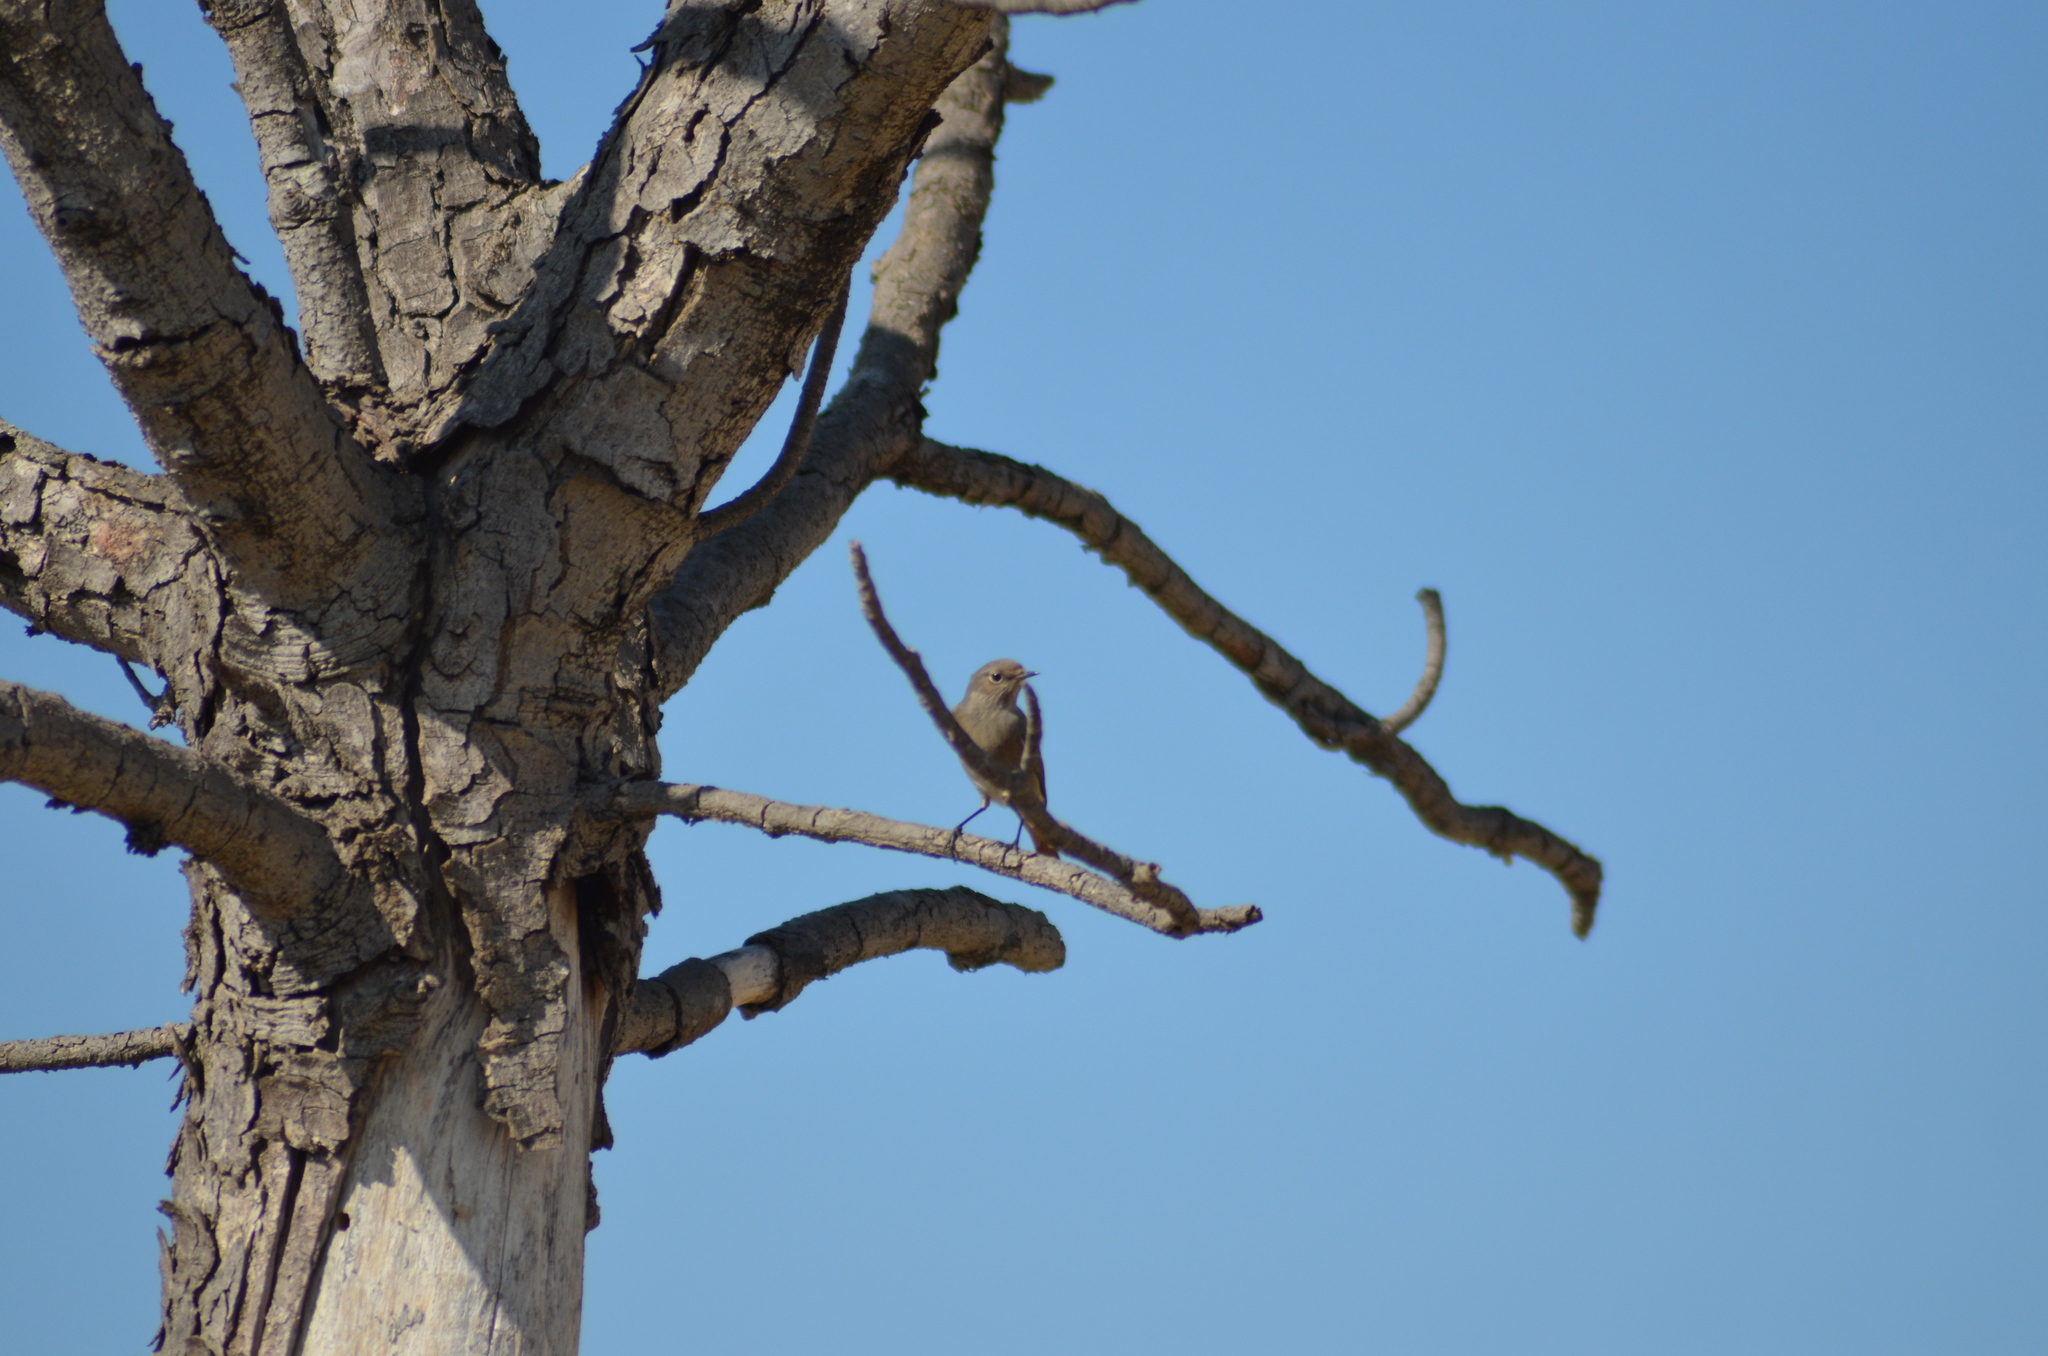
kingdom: Animalia
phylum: Chordata
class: Aves
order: Passeriformes
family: Muscicapidae
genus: Phoenicurus
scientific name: Phoenicurus ochruros
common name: Black redstart
